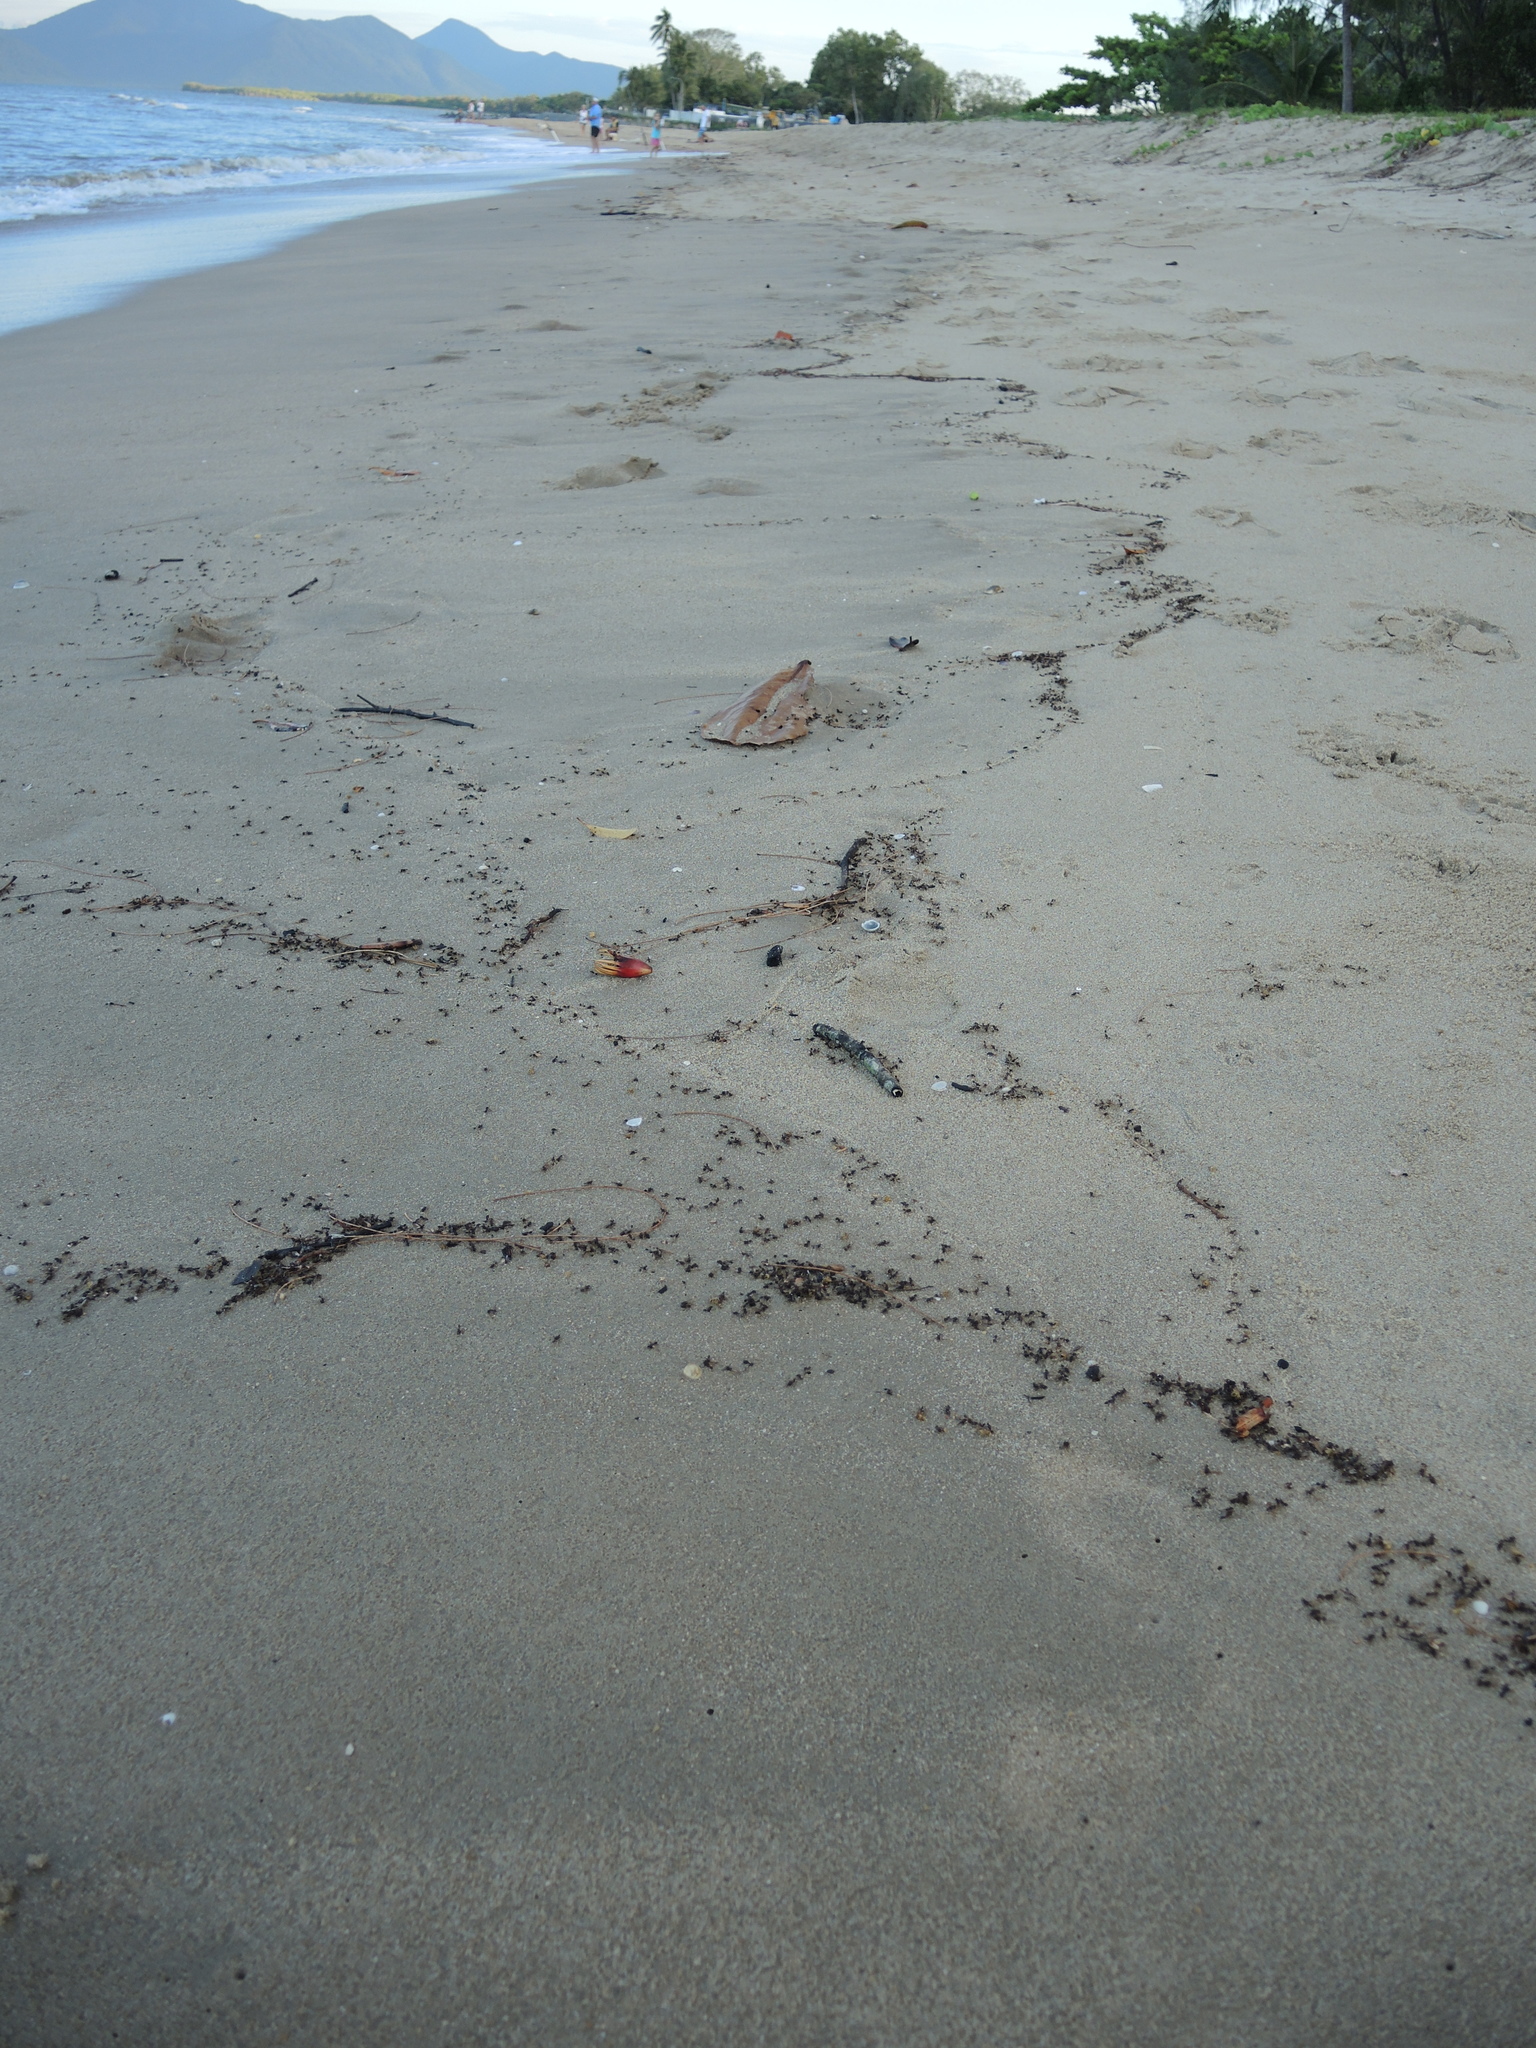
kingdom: Animalia
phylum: Arthropoda
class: Insecta
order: Hymenoptera
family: Formicidae
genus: Oecophylla
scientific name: Oecophylla smaragdina
